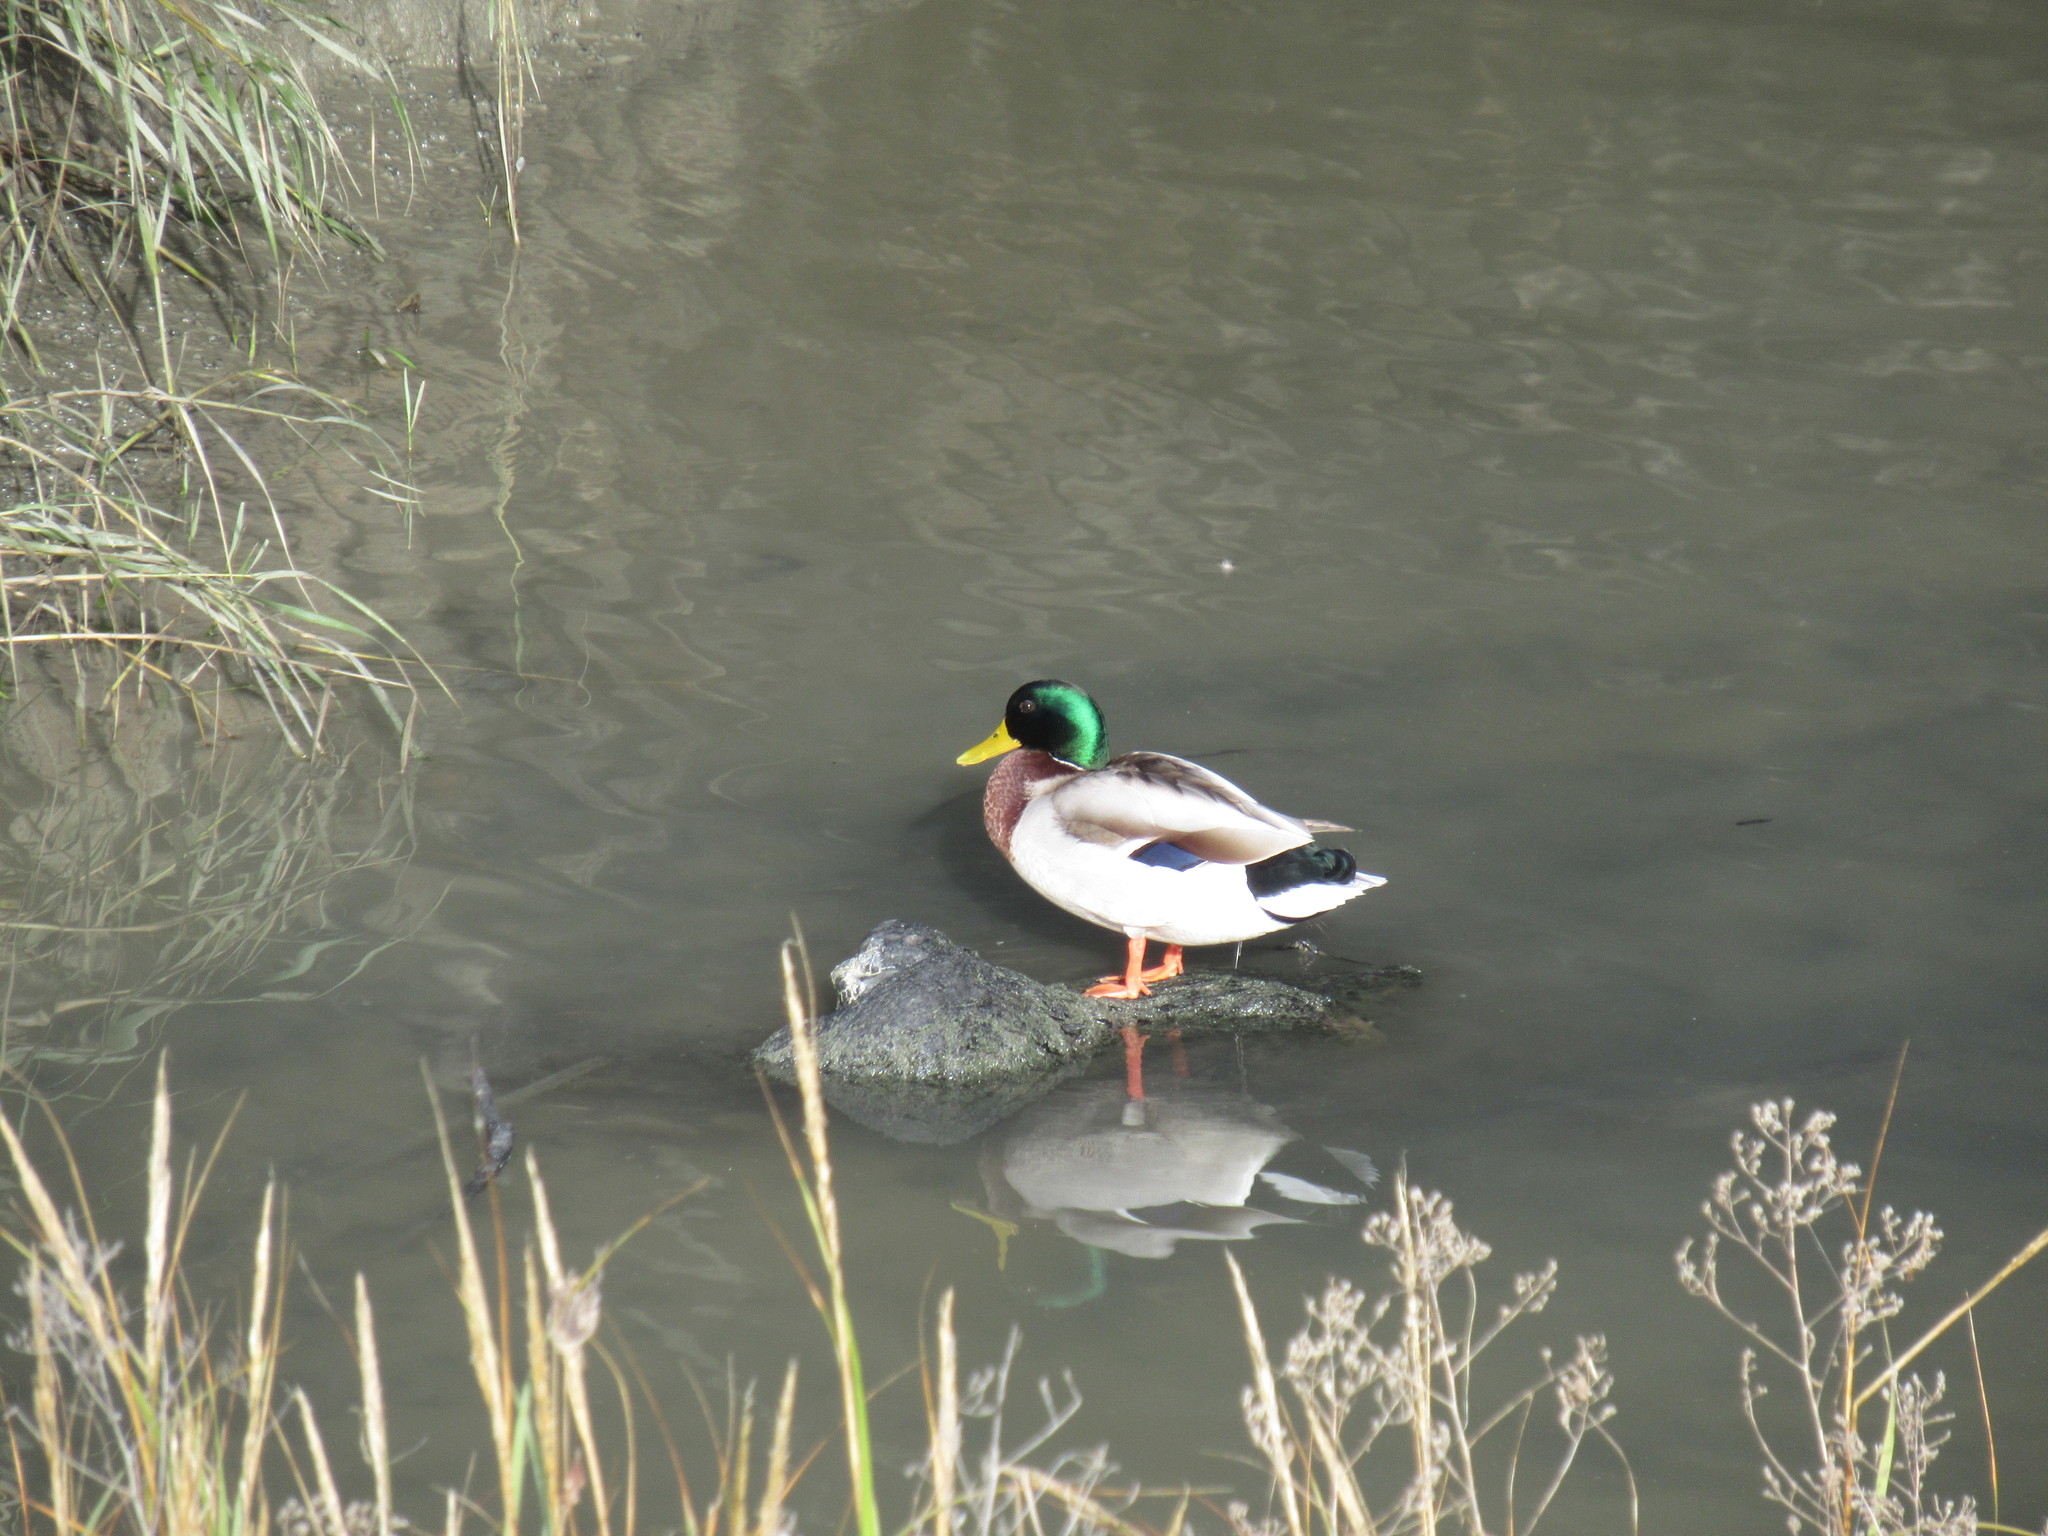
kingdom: Animalia
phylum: Chordata
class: Aves
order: Anseriformes
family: Anatidae
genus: Anas
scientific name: Anas platyrhynchos
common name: Mallard
